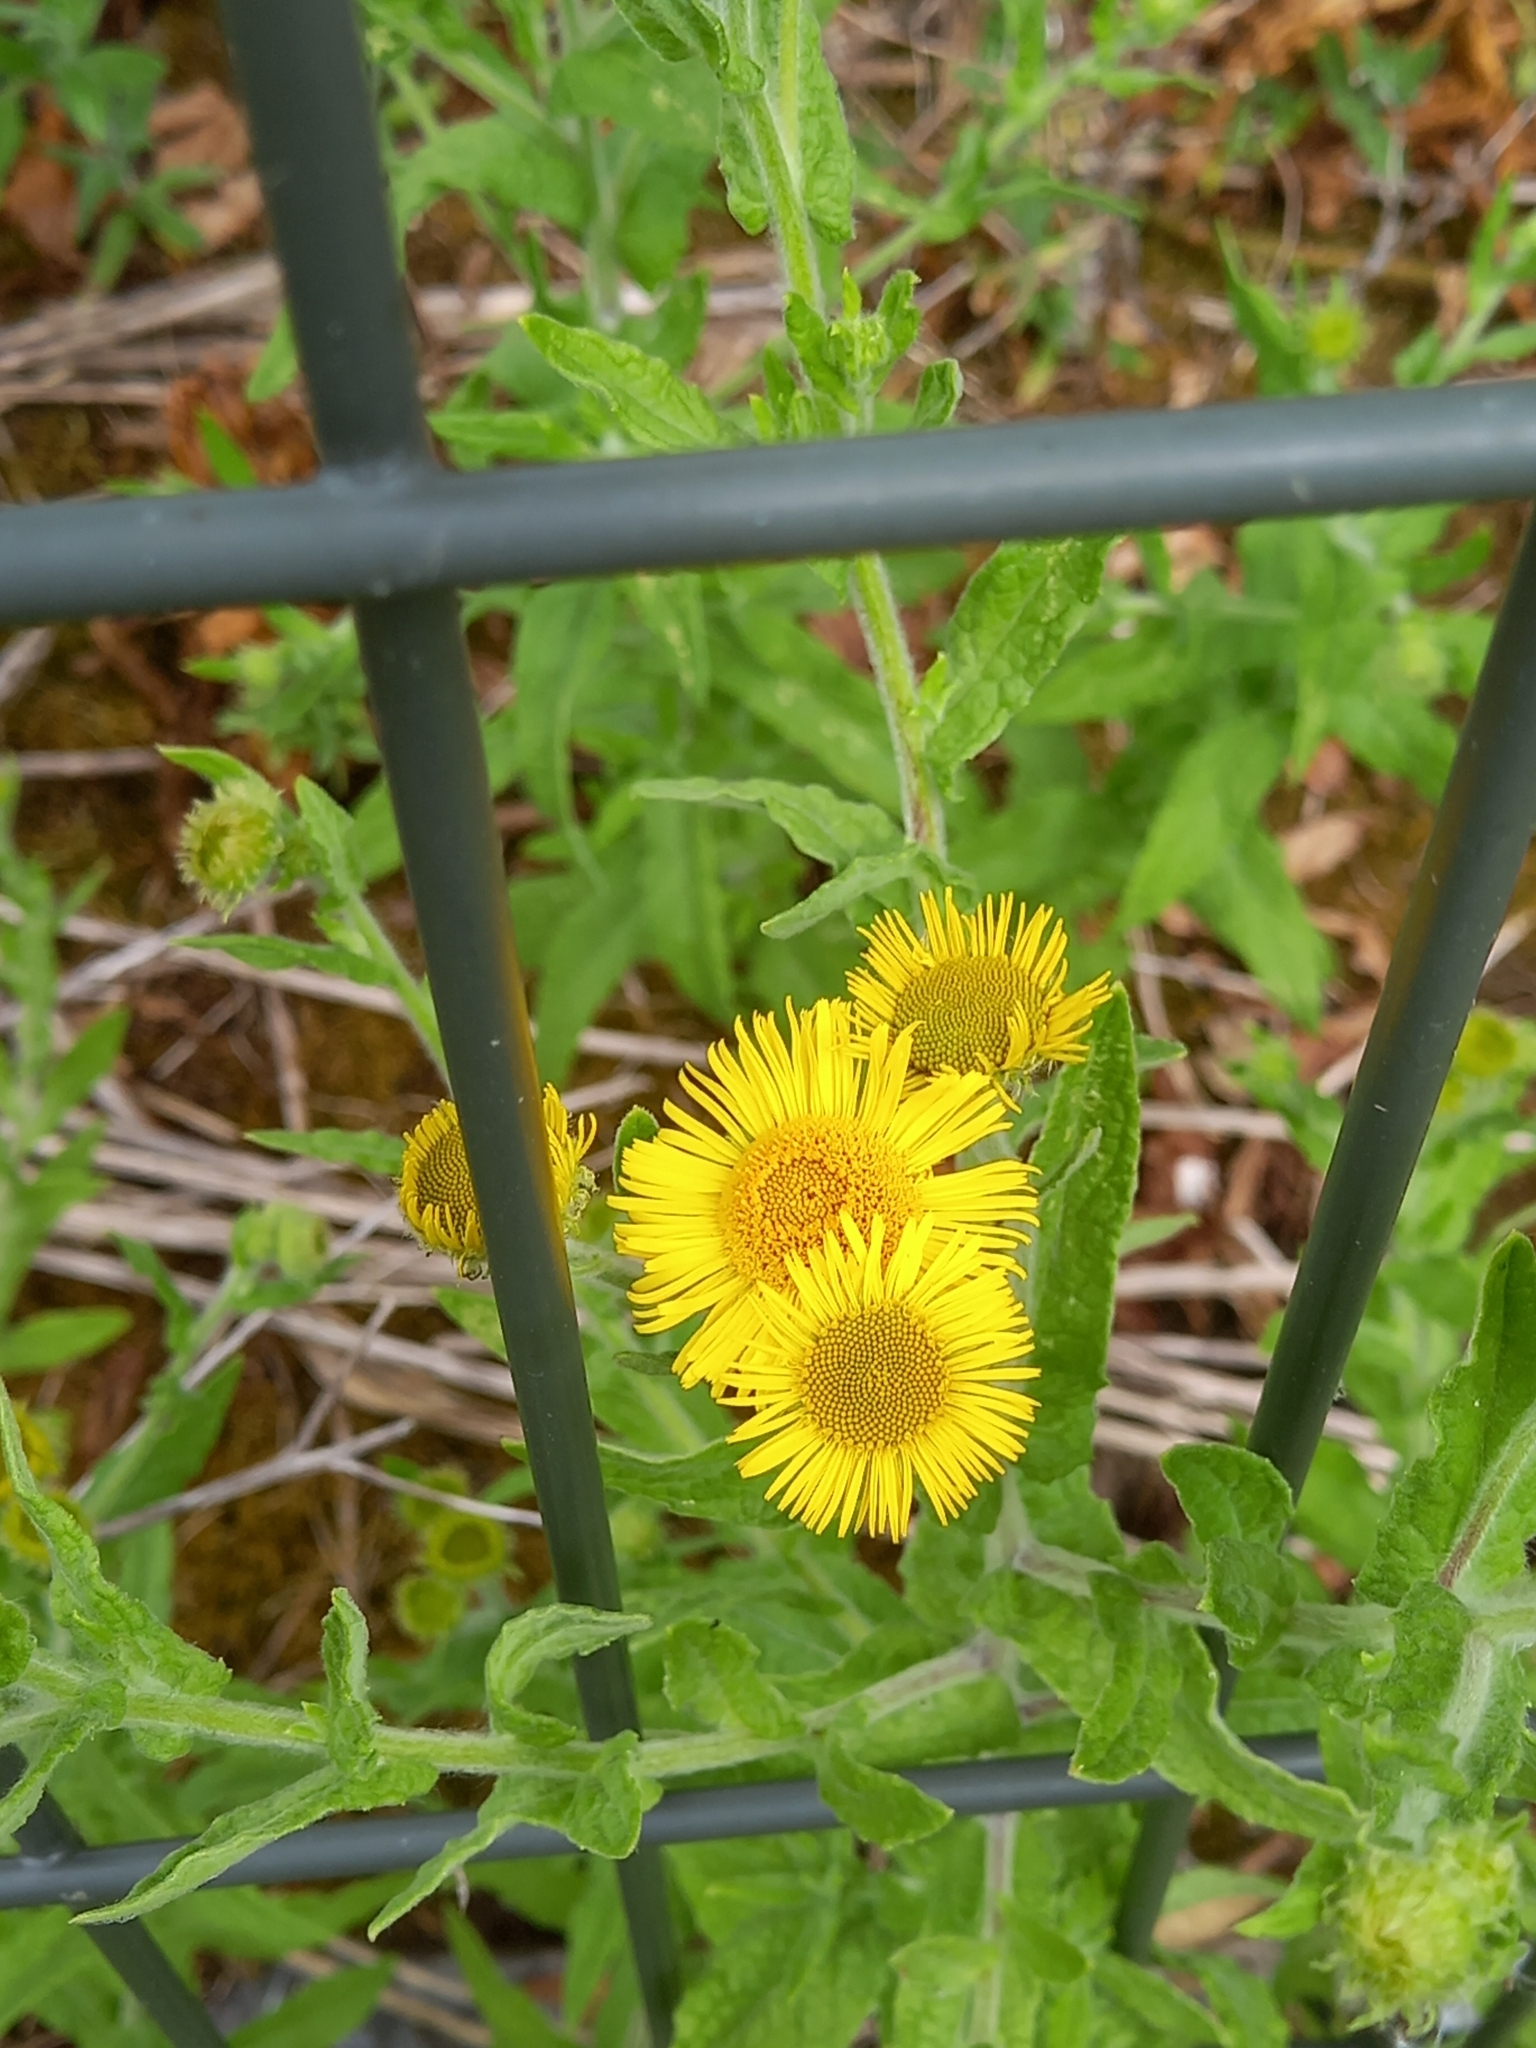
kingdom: Plantae
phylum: Tracheophyta
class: Magnoliopsida
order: Asterales
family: Asteraceae
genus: Pulicaria
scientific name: Pulicaria dysenterica
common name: Common fleabane
